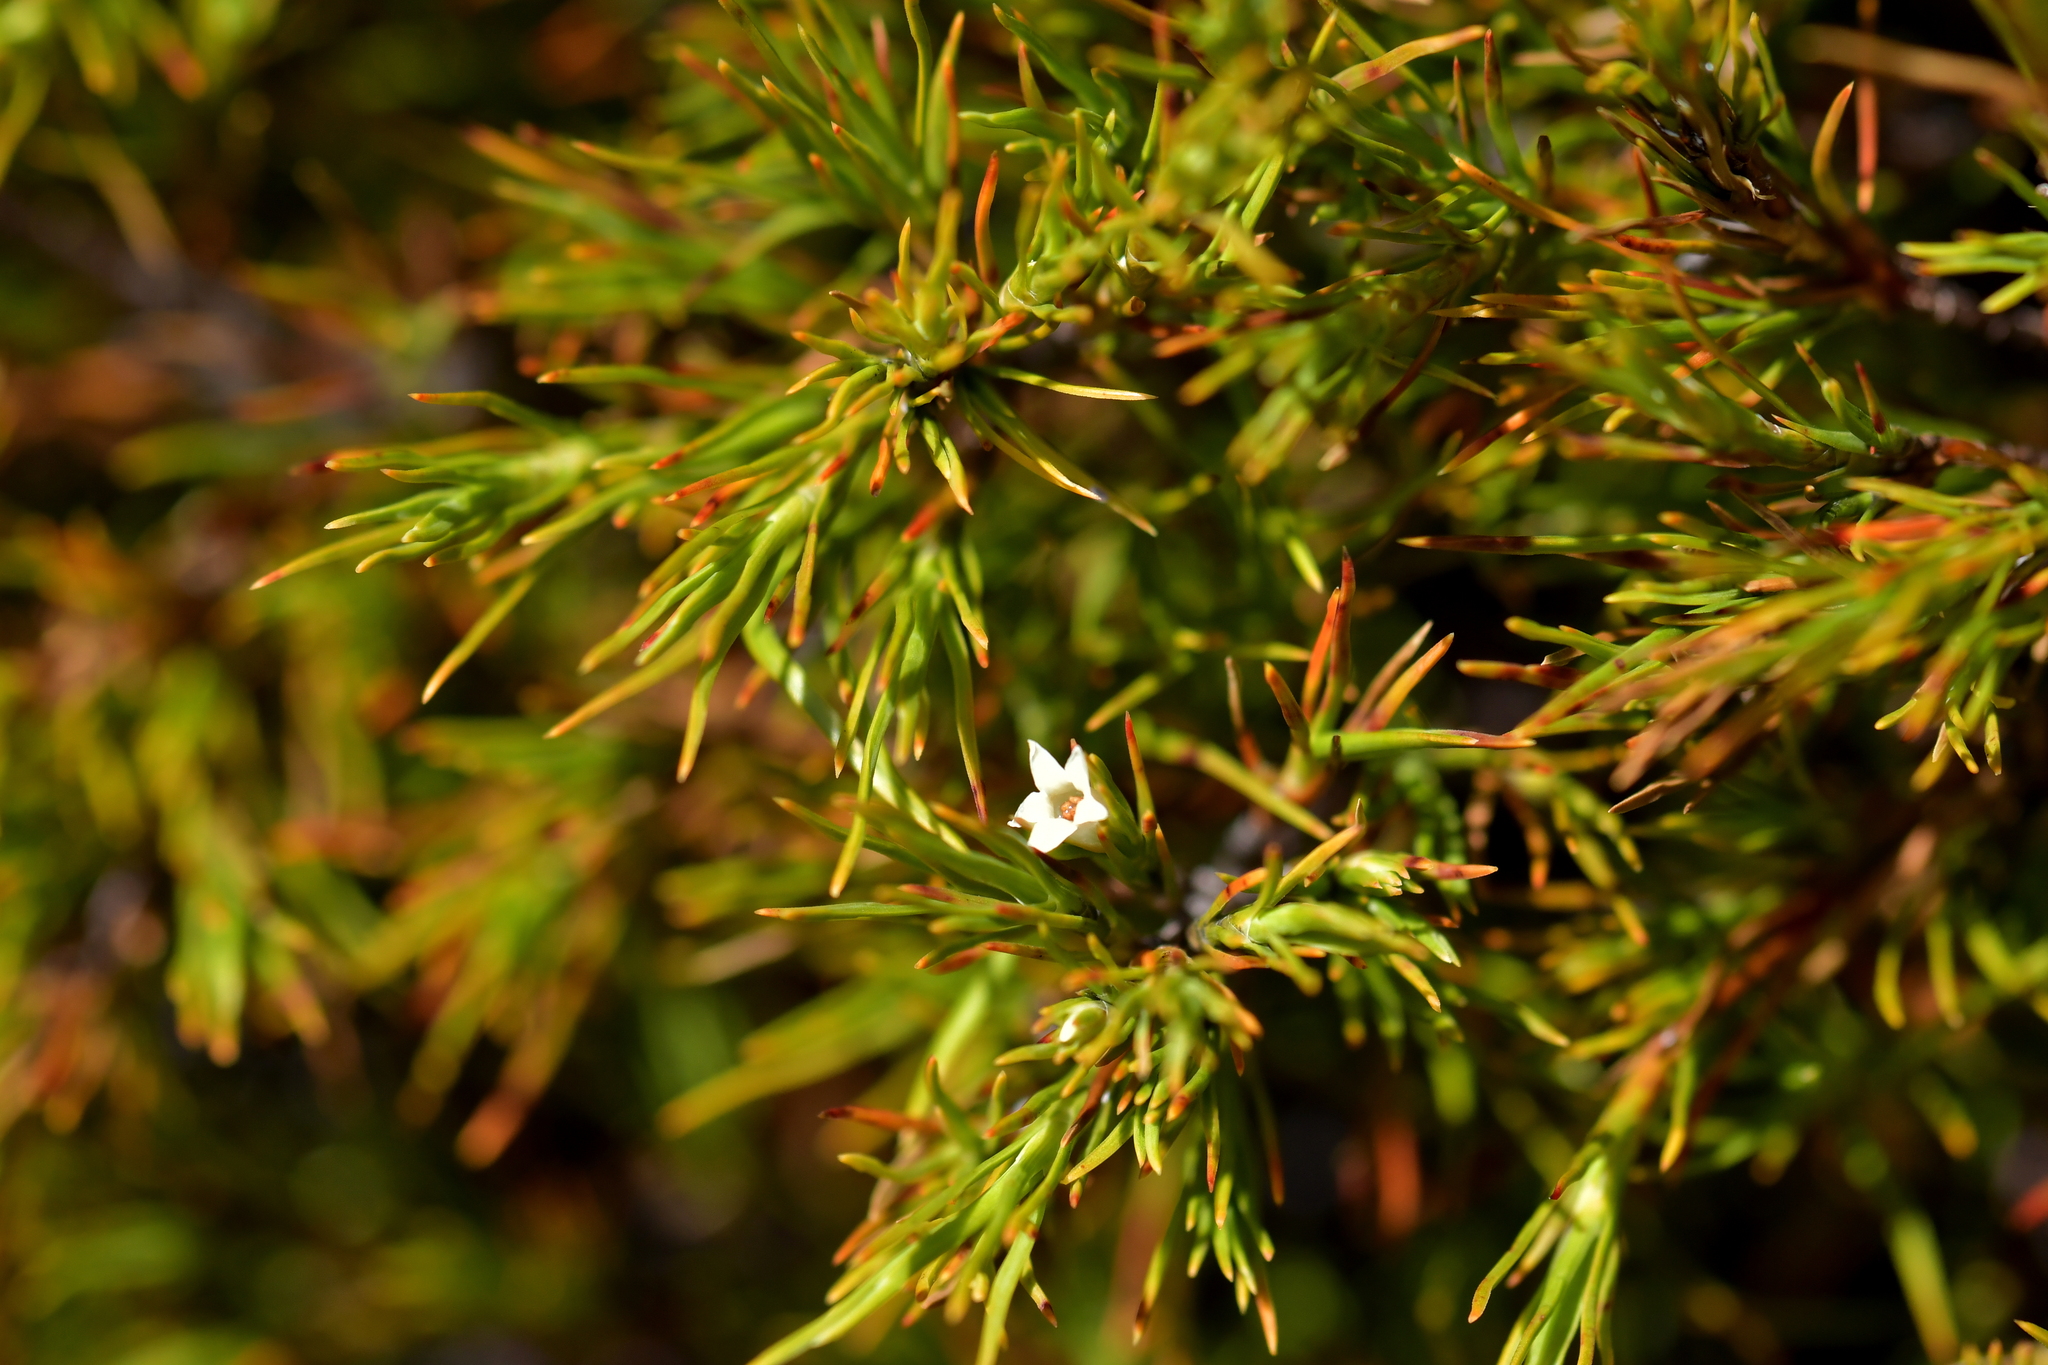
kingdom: Plantae
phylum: Tracheophyta
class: Magnoliopsida
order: Ericales
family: Ericaceae
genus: Dracophyllum
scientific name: Dracophyllum rosmarinifolium
